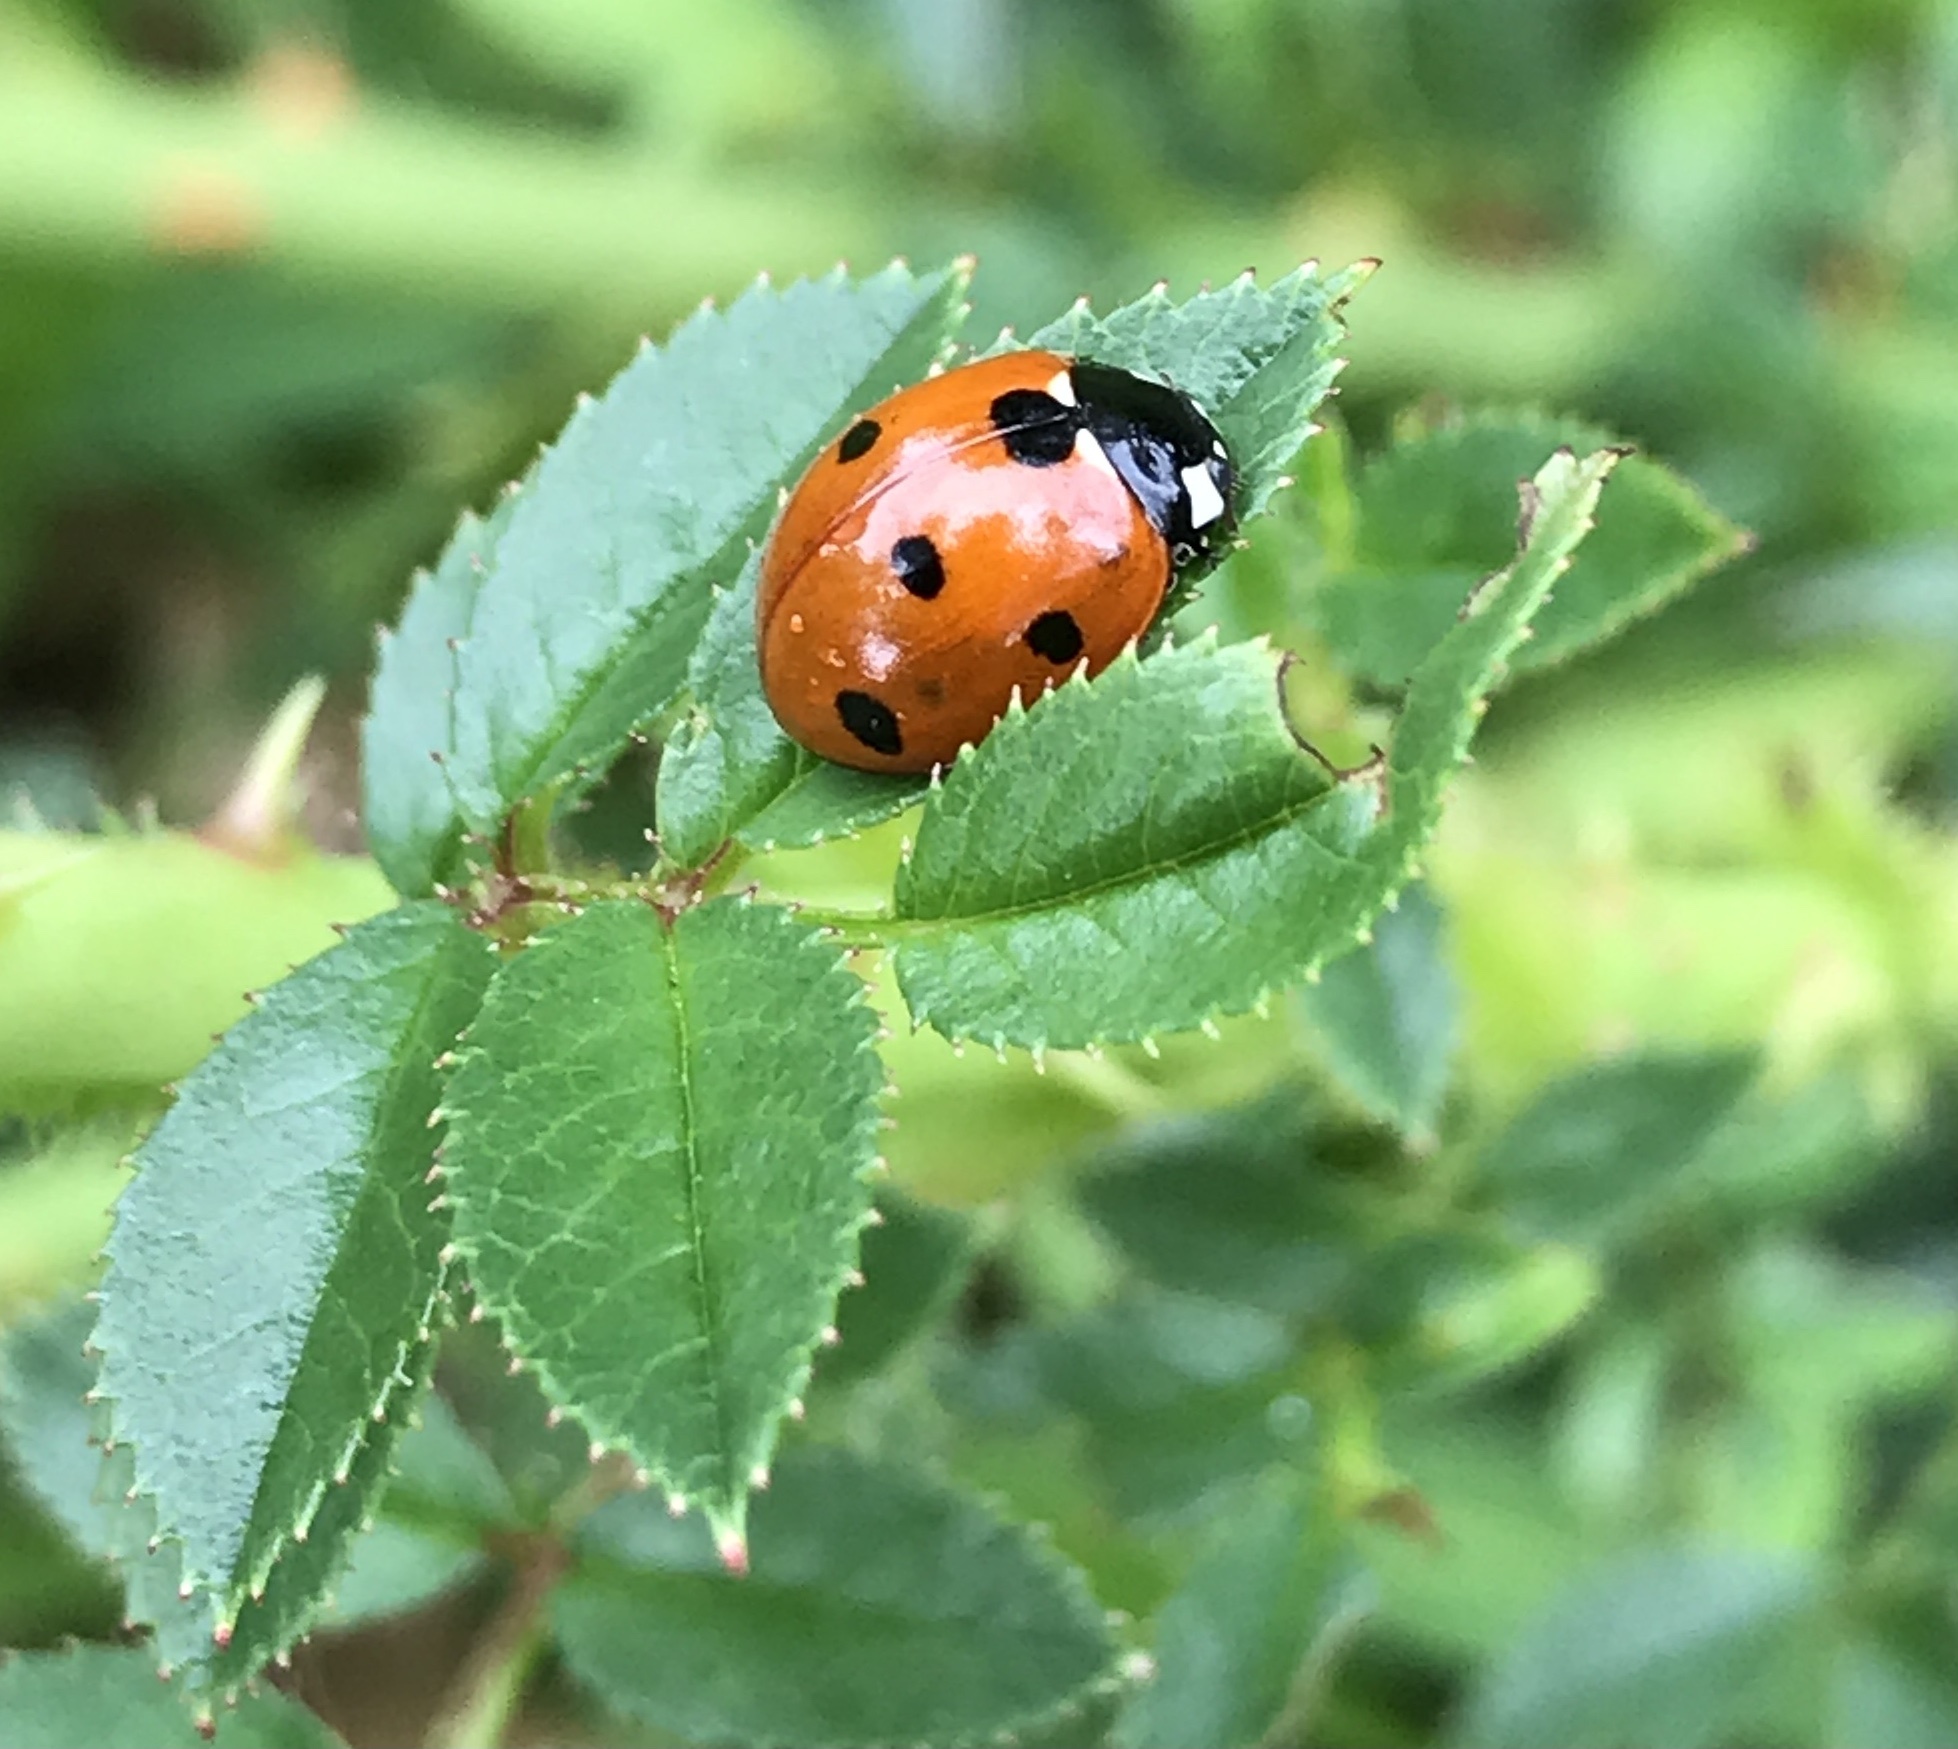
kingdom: Animalia
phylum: Arthropoda
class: Insecta
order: Coleoptera
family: Coccinellidae
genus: Coccinella
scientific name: Coccinella septempunctata
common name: Sevenspotted lady beetle
